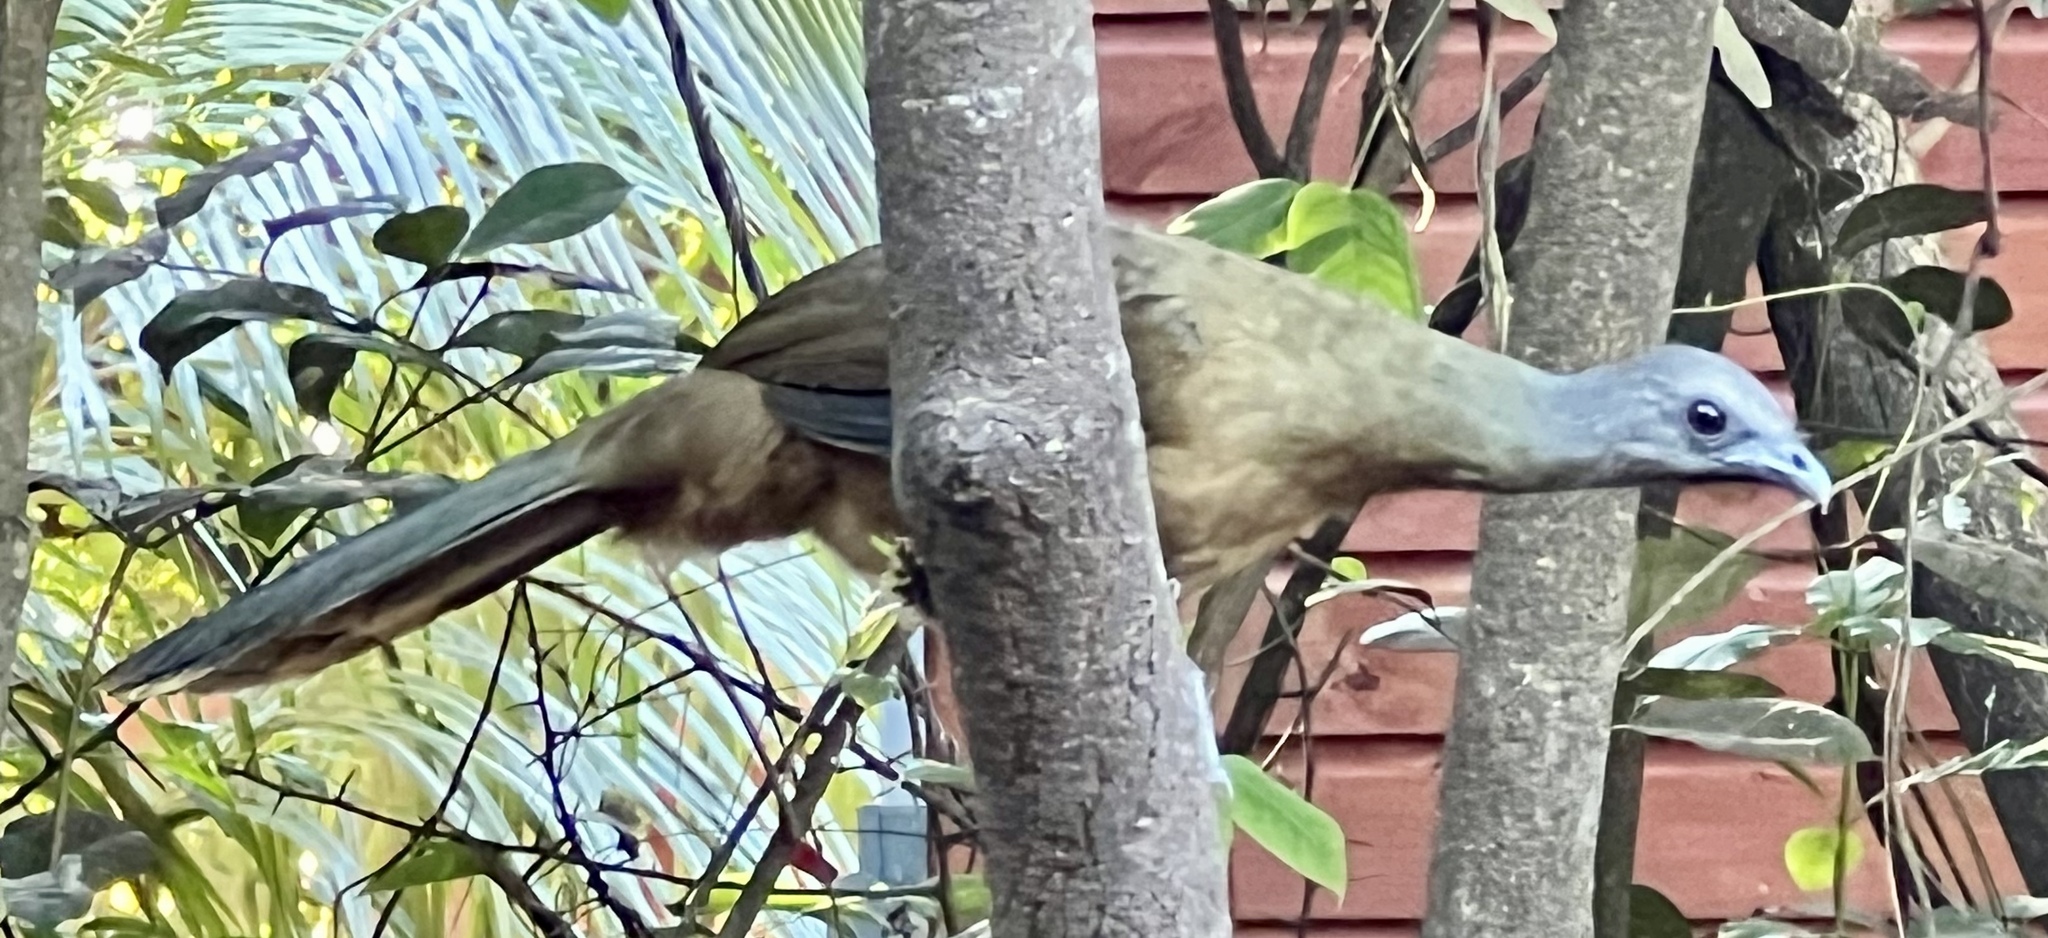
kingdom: Animalia
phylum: Chordata
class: Aves
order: Galliformes
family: Cracidae
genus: Ortalis
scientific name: Ortalis vetula
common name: Plain chachalaca
